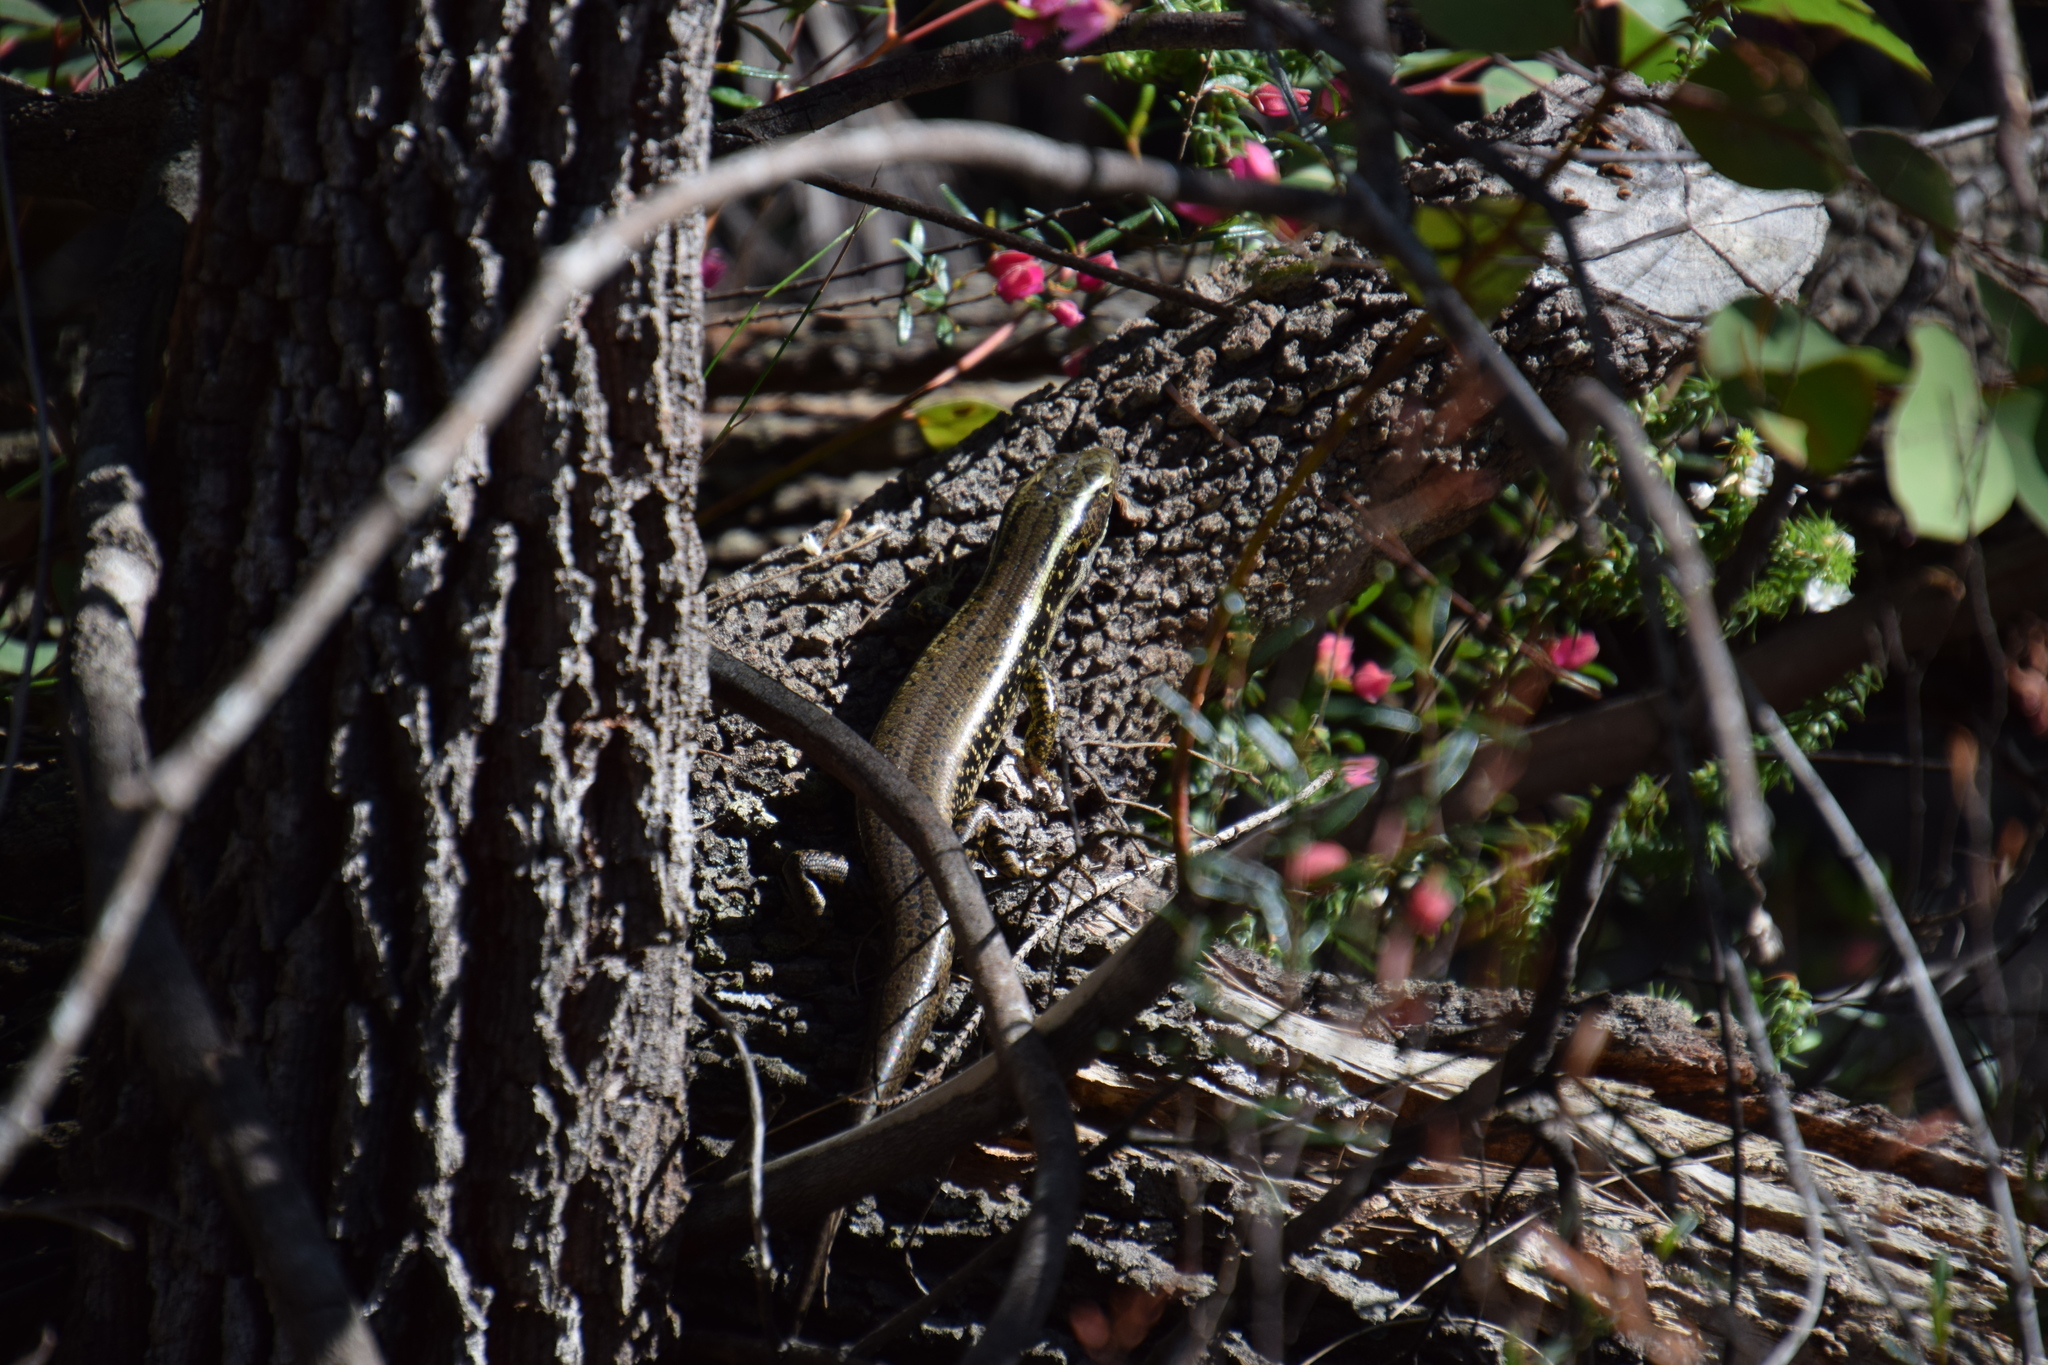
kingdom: Animalia
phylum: Chordata
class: Squamata
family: Scincidae
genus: Eulamprus
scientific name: Eulamprus quoyii
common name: Eastern water skink
